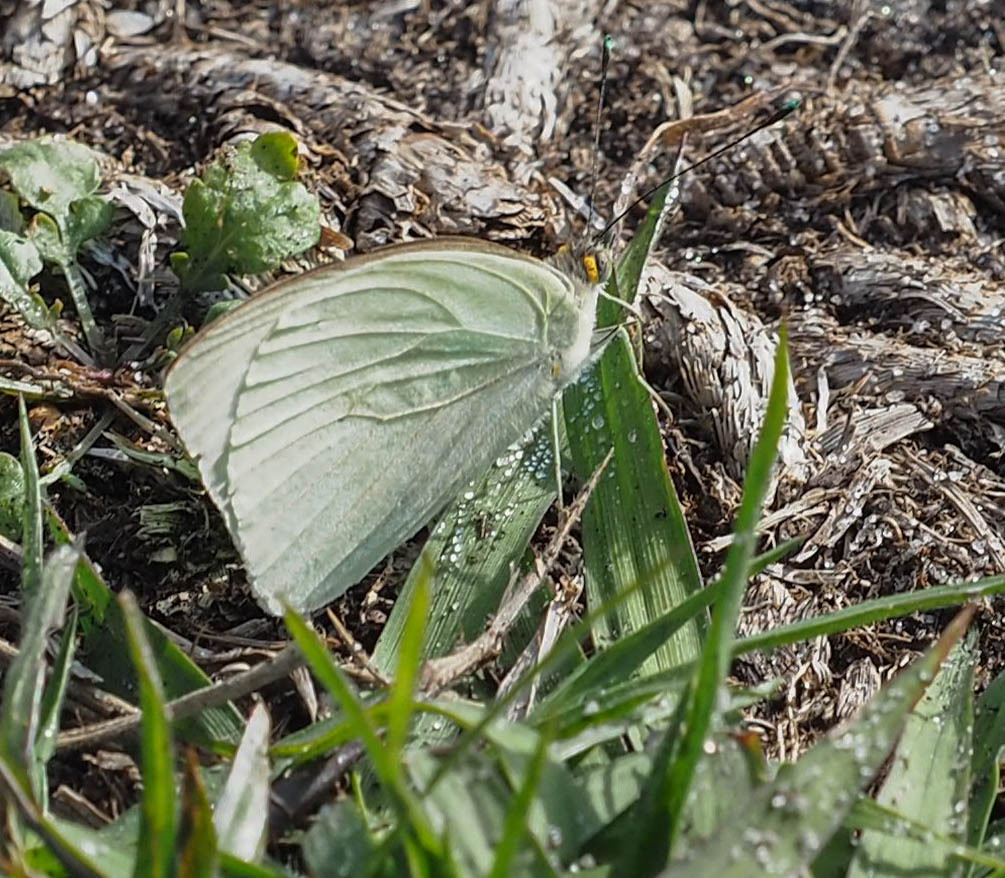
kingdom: Animalia
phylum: Arthropoda
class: Insecta
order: Lepidoptera
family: Pieridae
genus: Ascia
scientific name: Ascia monuste
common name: Great southern white
